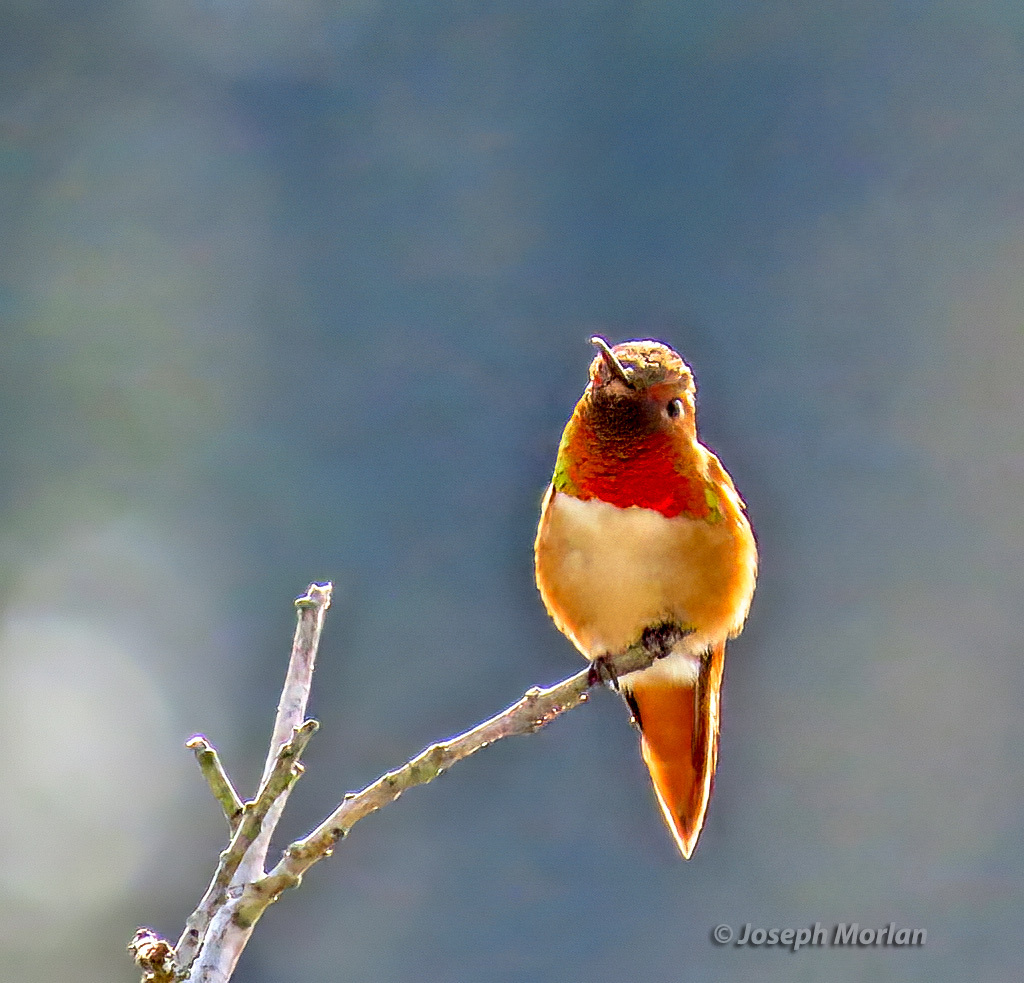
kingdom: Animalia
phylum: Chordata
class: Aves
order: Apodiformes
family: Trochilidae
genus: Selasphorus
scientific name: Selasphorus sasin
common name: Allen's hummingbird
